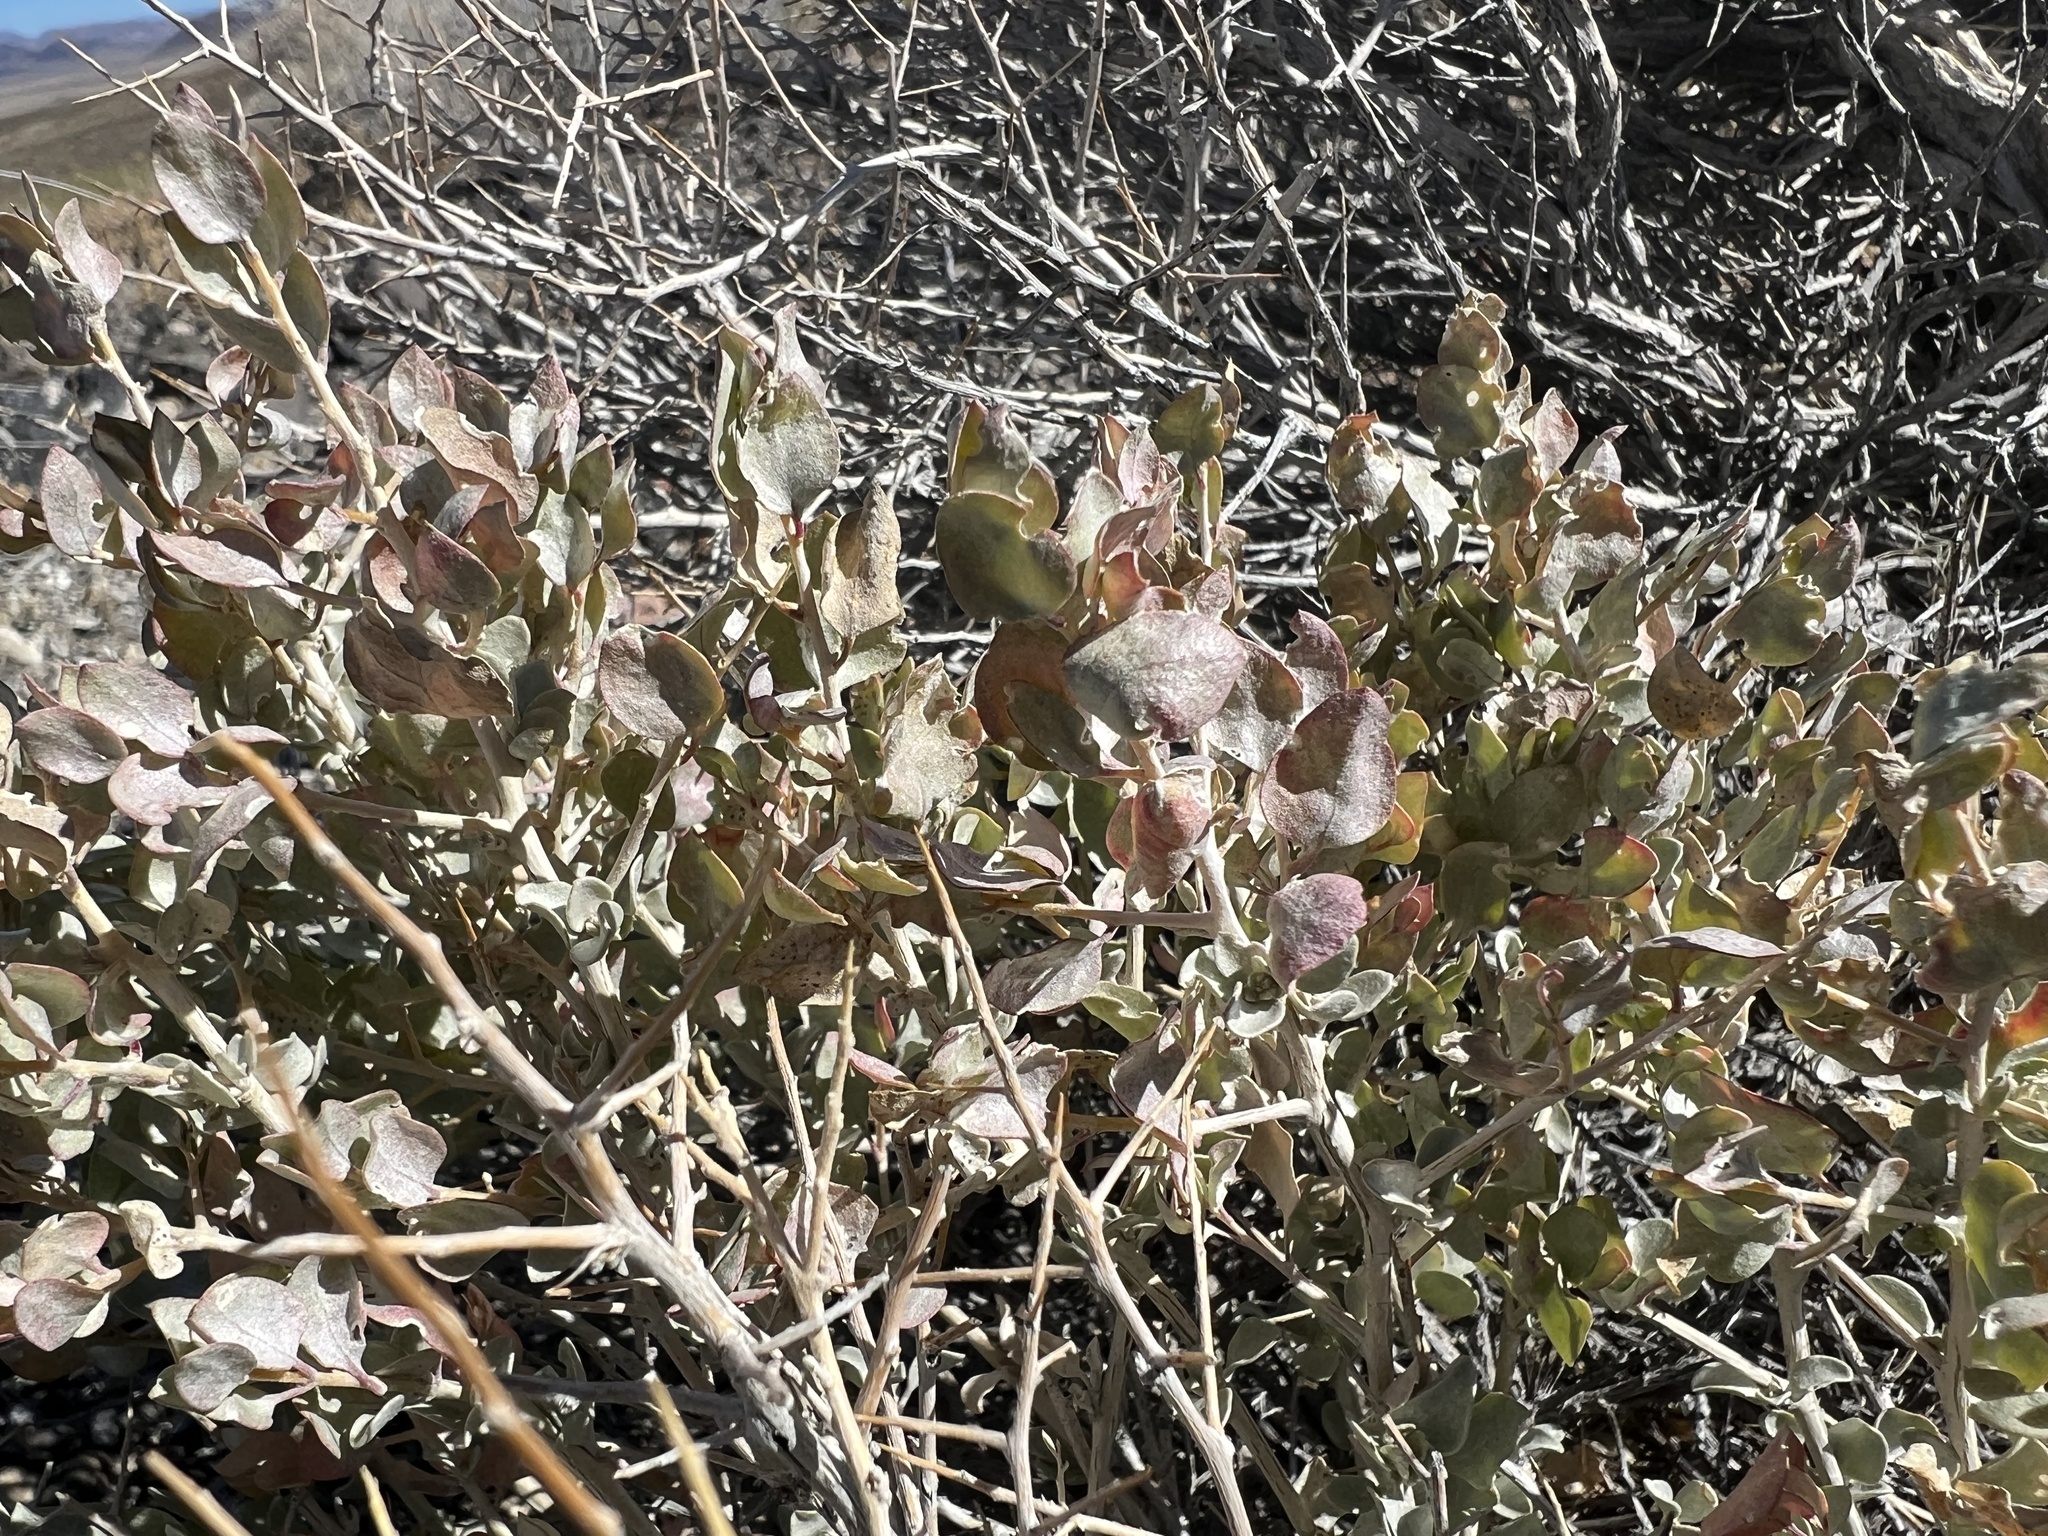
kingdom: Plantae
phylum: Tracheophyta
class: Magnoliopsida
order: Caryophyllales
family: Amaranthaceae
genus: Atriplex
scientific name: Atriplex confertifolia
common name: Shadscale
